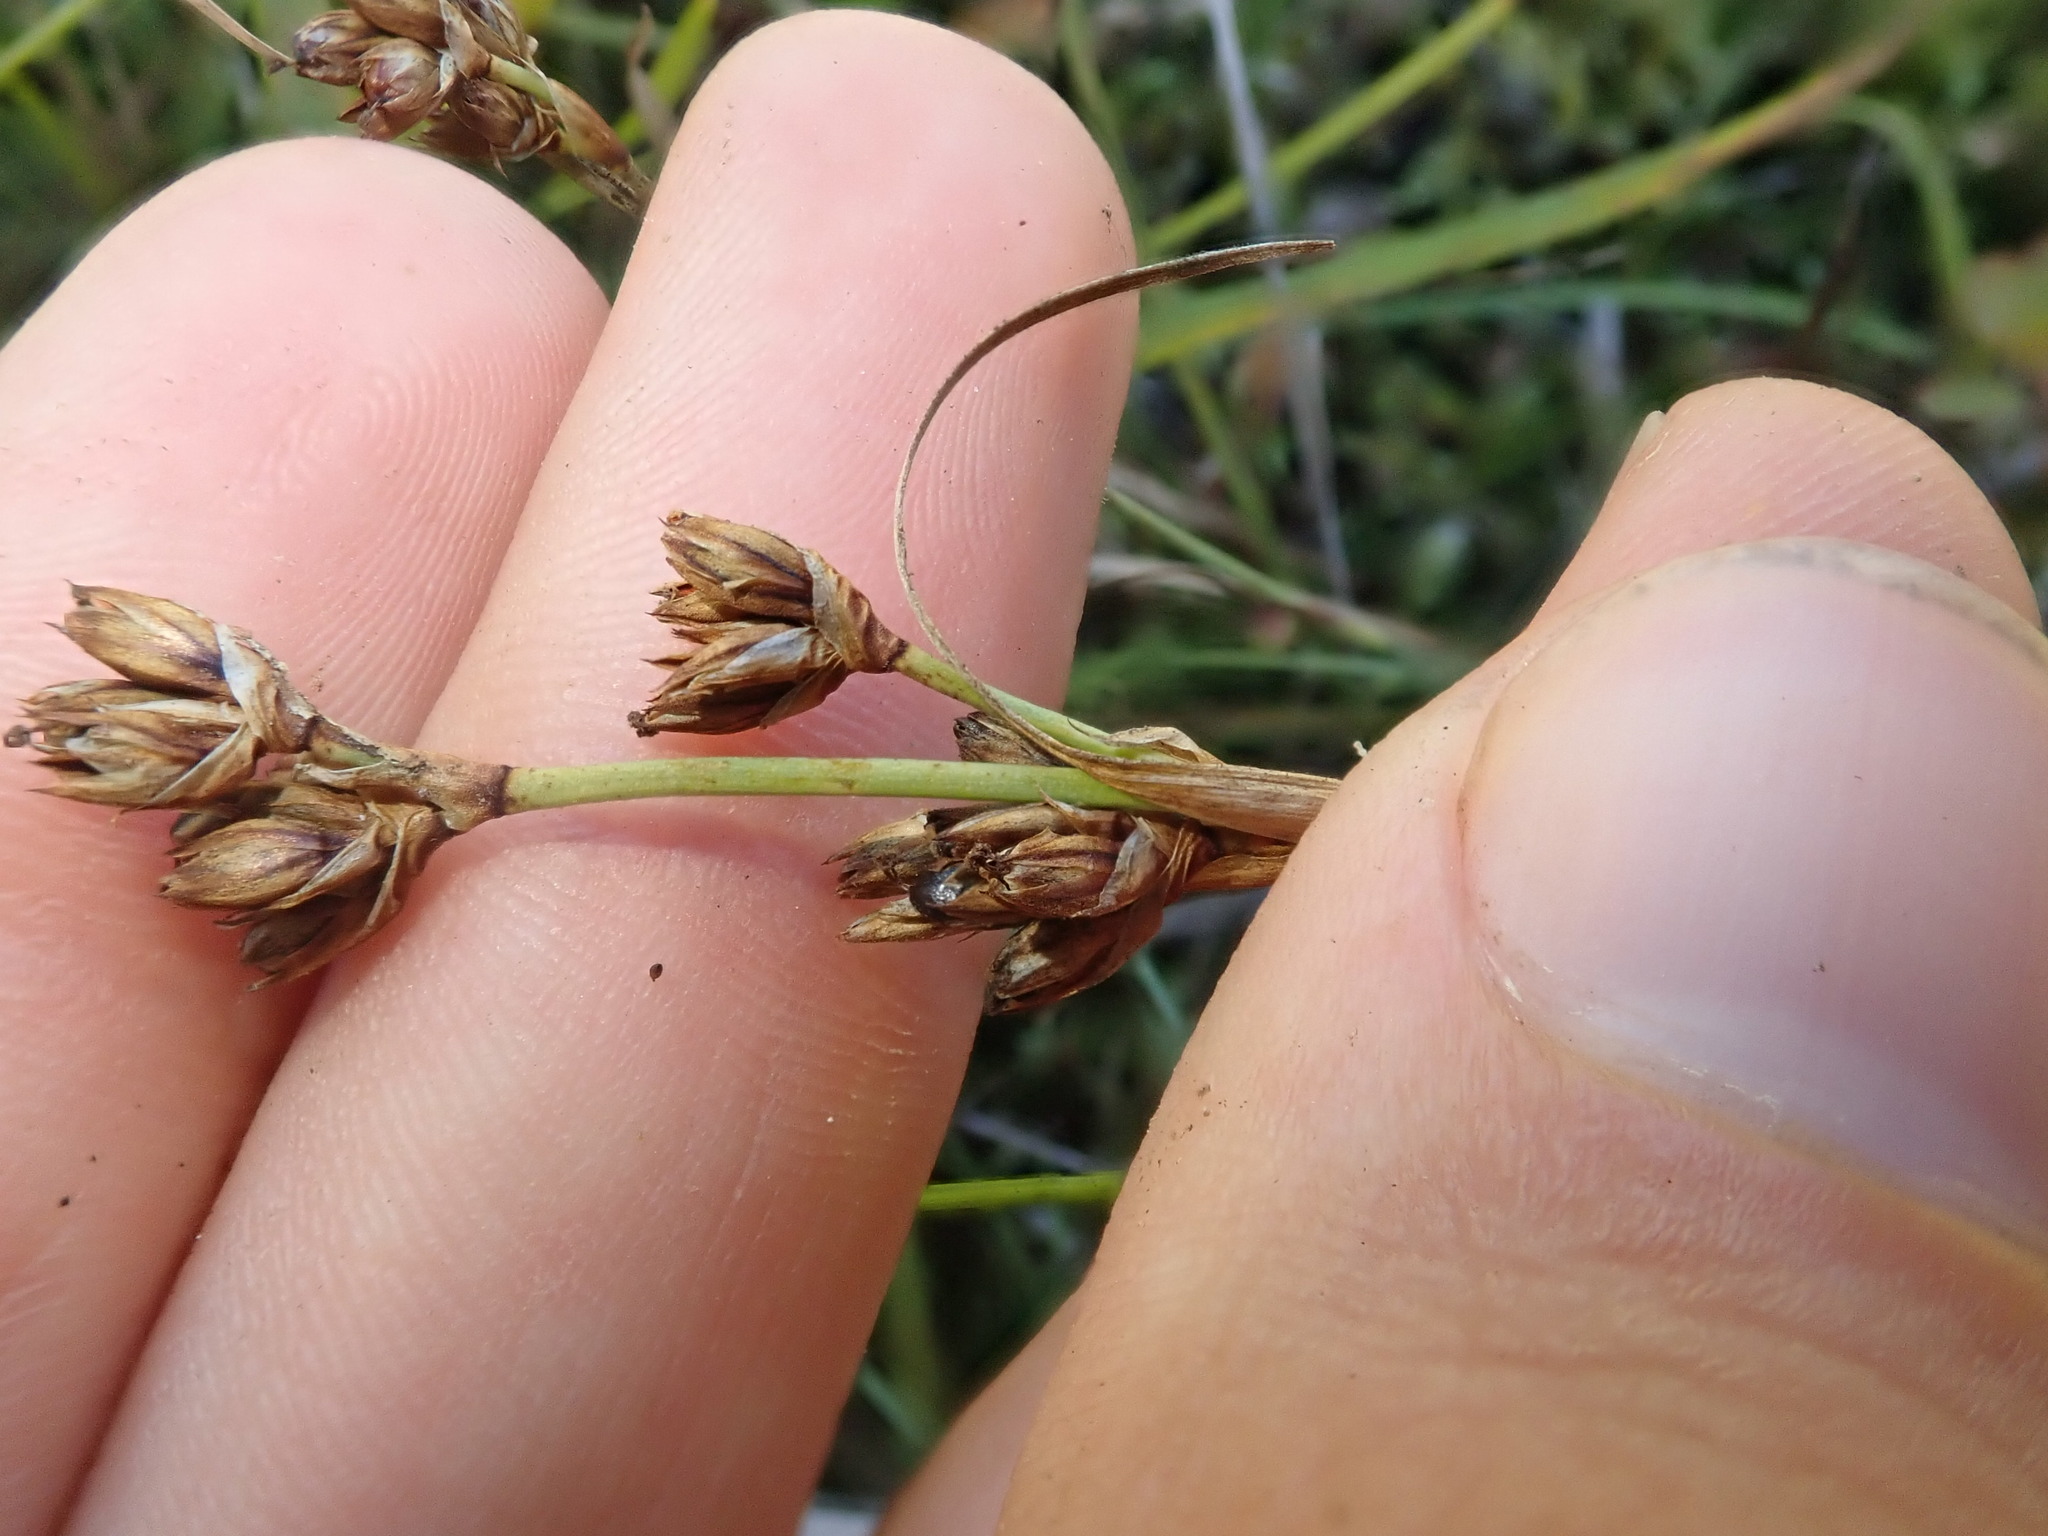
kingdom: Plantae
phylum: Tracheophyta
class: Liliopsida
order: Poales
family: Juncaceae
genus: Juncus
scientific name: Juncus covillei
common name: Coville's rush
